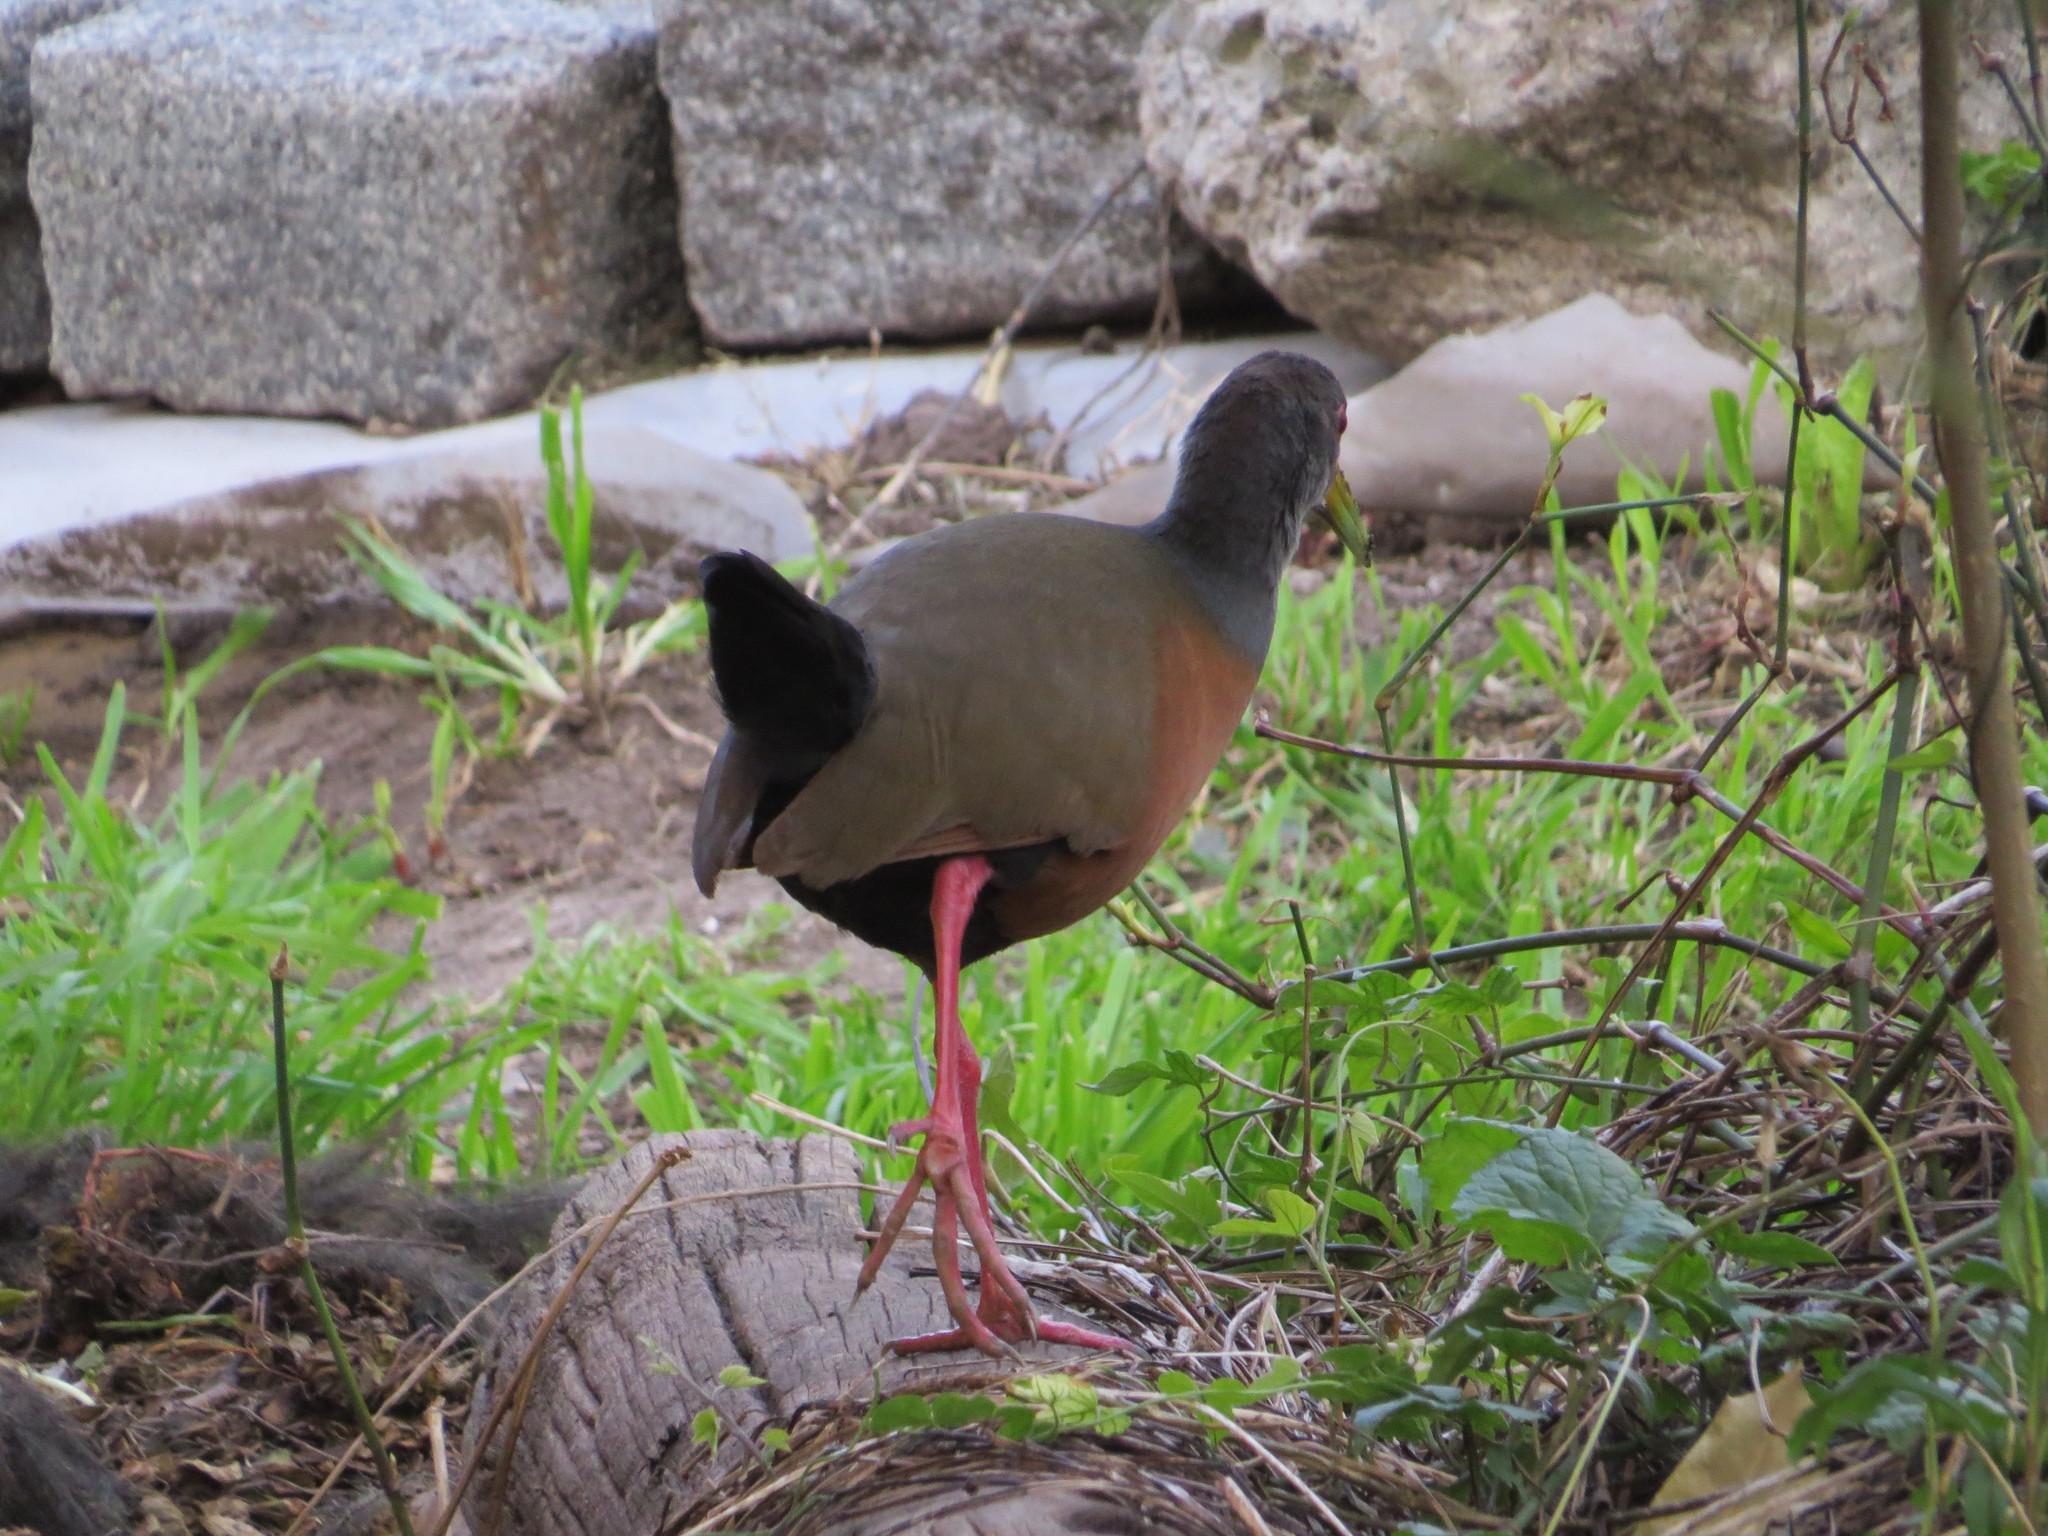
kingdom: Animalia
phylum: Chordata
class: Aves
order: Gruiformes
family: Rallidae
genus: Aramides
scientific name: Aramides cajanea
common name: Gray-necked wood-rail
